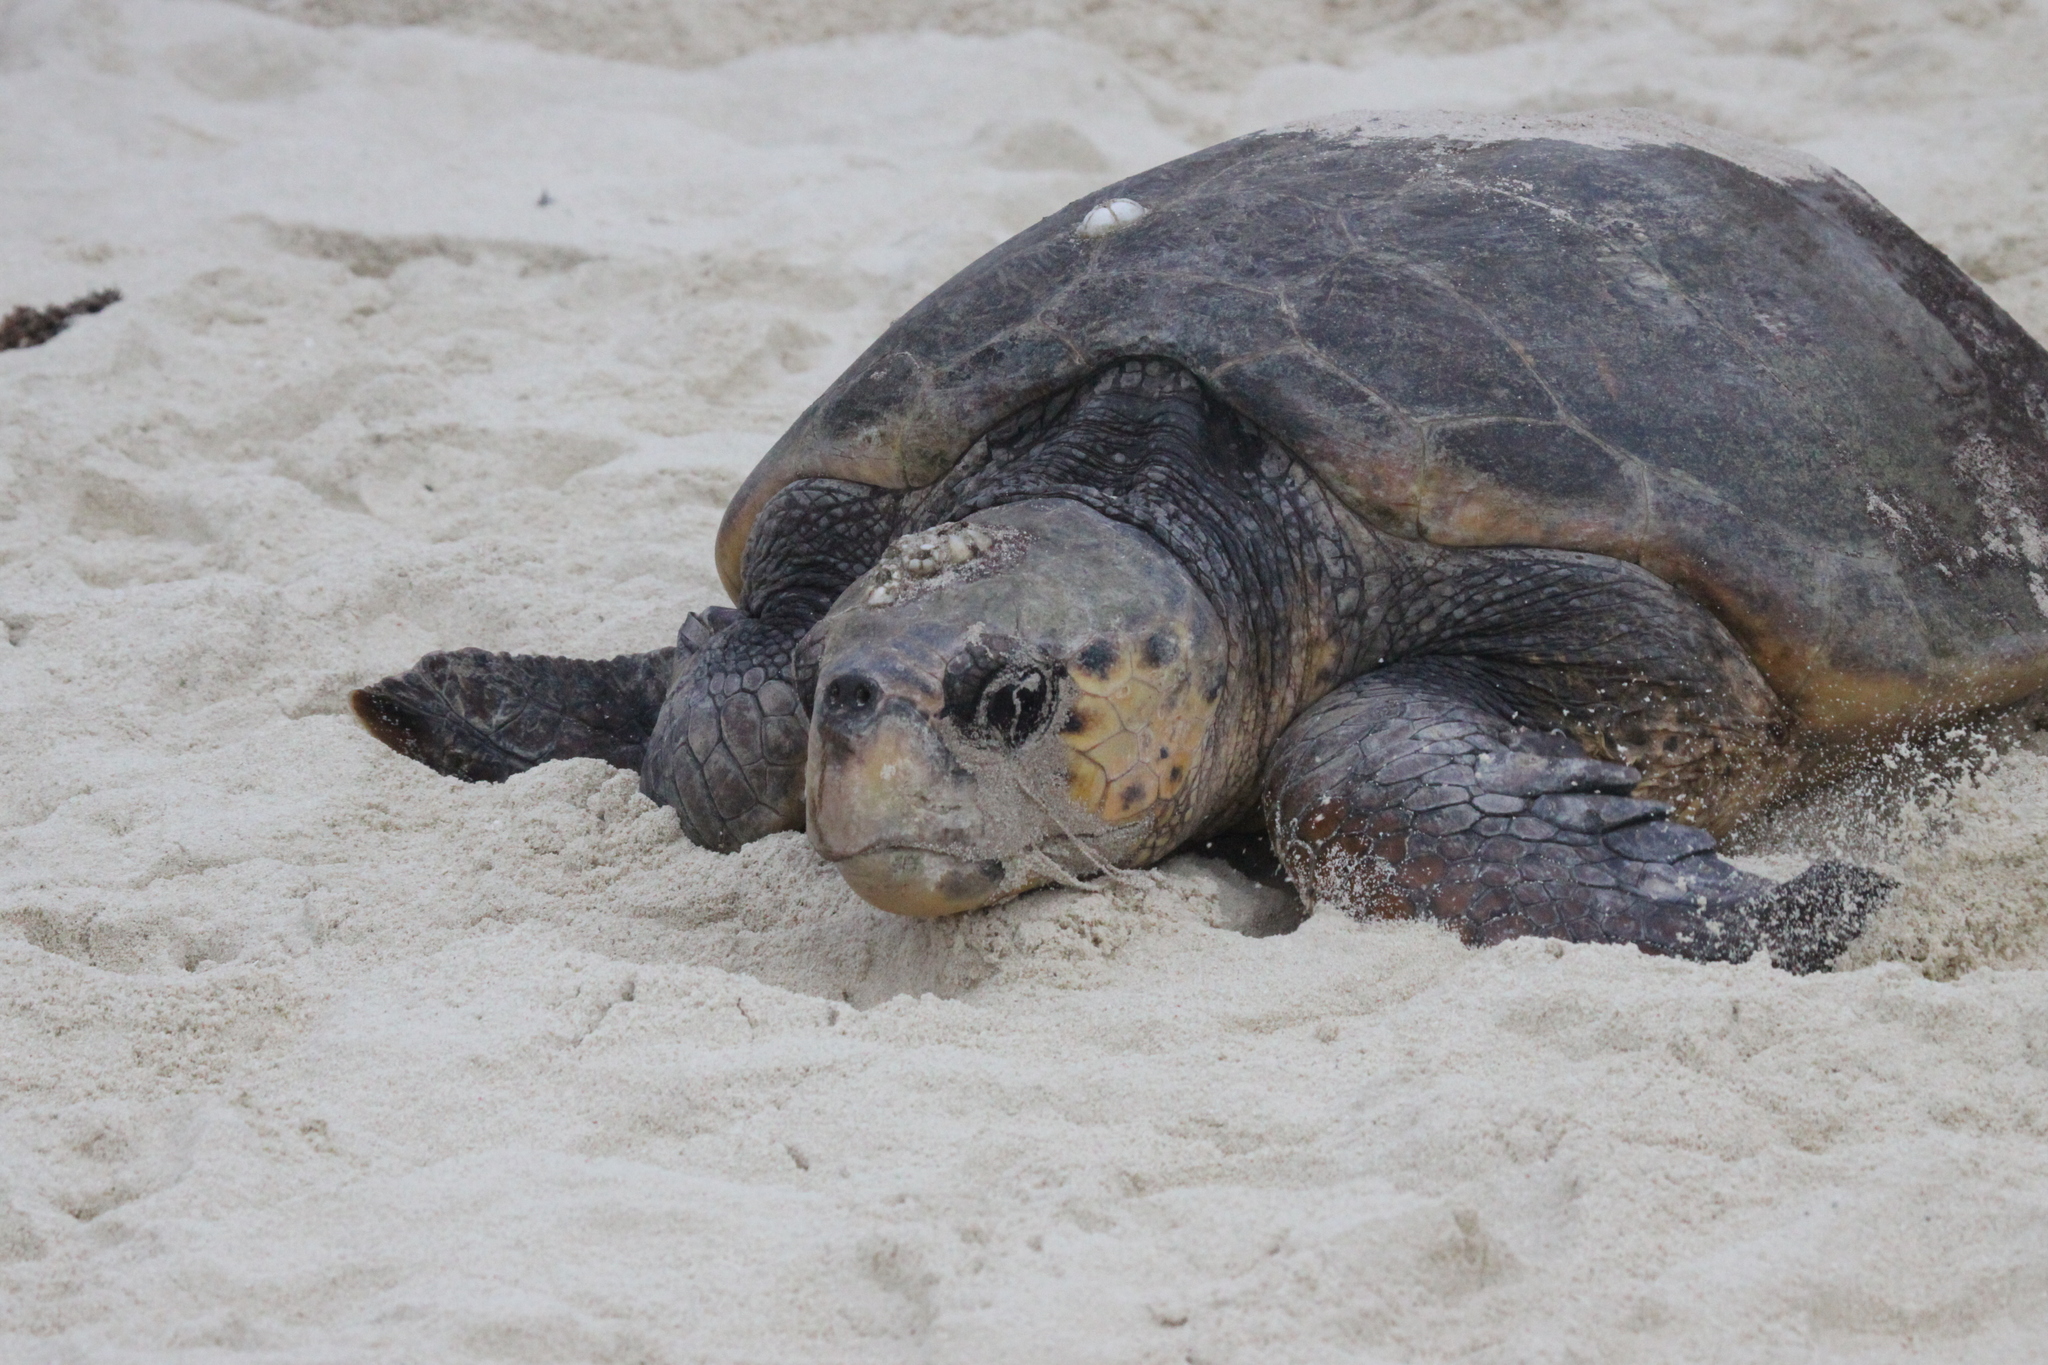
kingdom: Animalia
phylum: Chordata
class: Testudines
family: Cheloniidae
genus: Caretta
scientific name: Caretta caretta
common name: Loggerhead sea turtle
